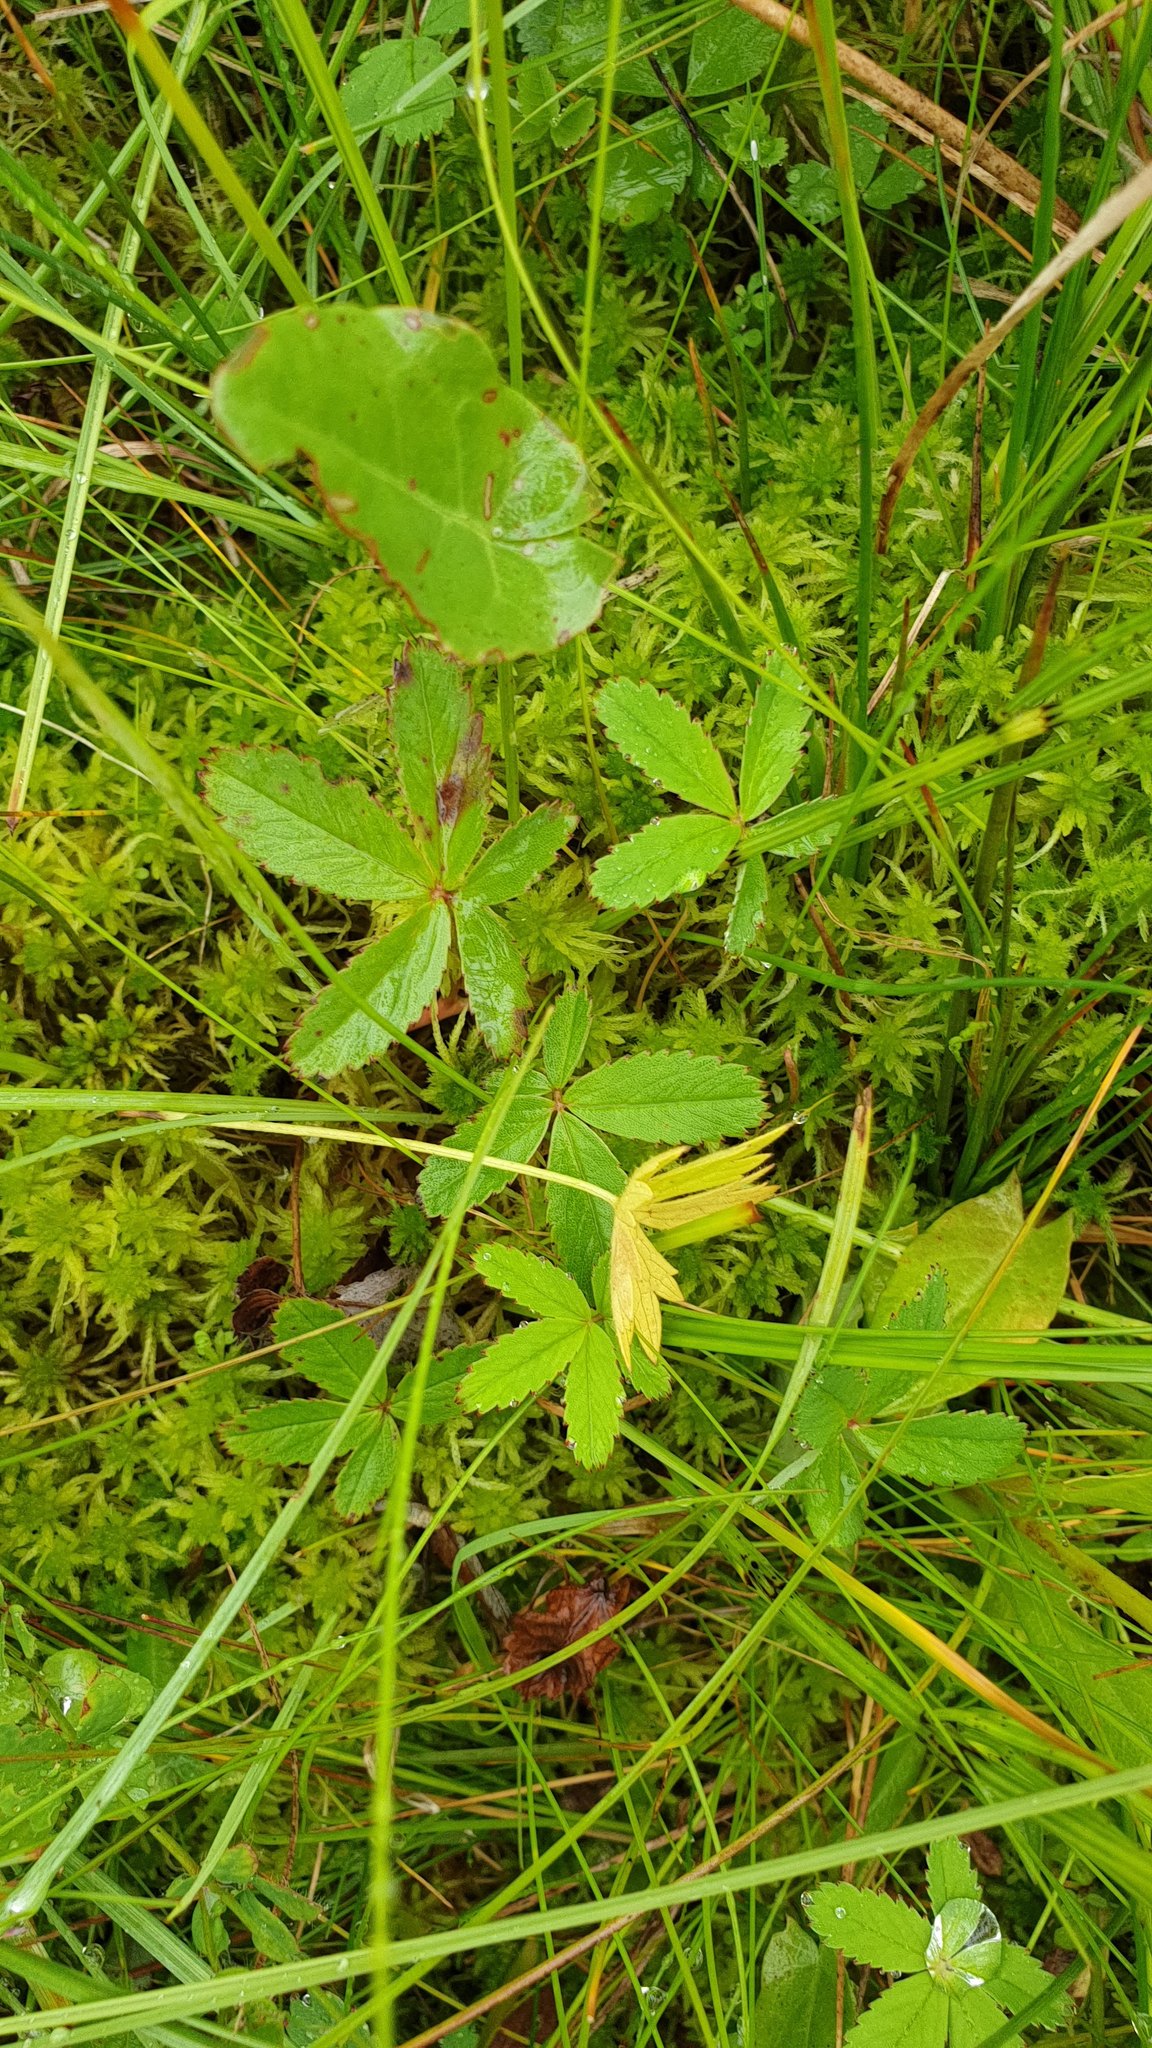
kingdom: Plantae
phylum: Tracheophyta
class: Magnoliopsida
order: Rosales
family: Rosaceae
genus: Comarum
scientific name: Comarum palustre
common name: Marsh cinquefoil
